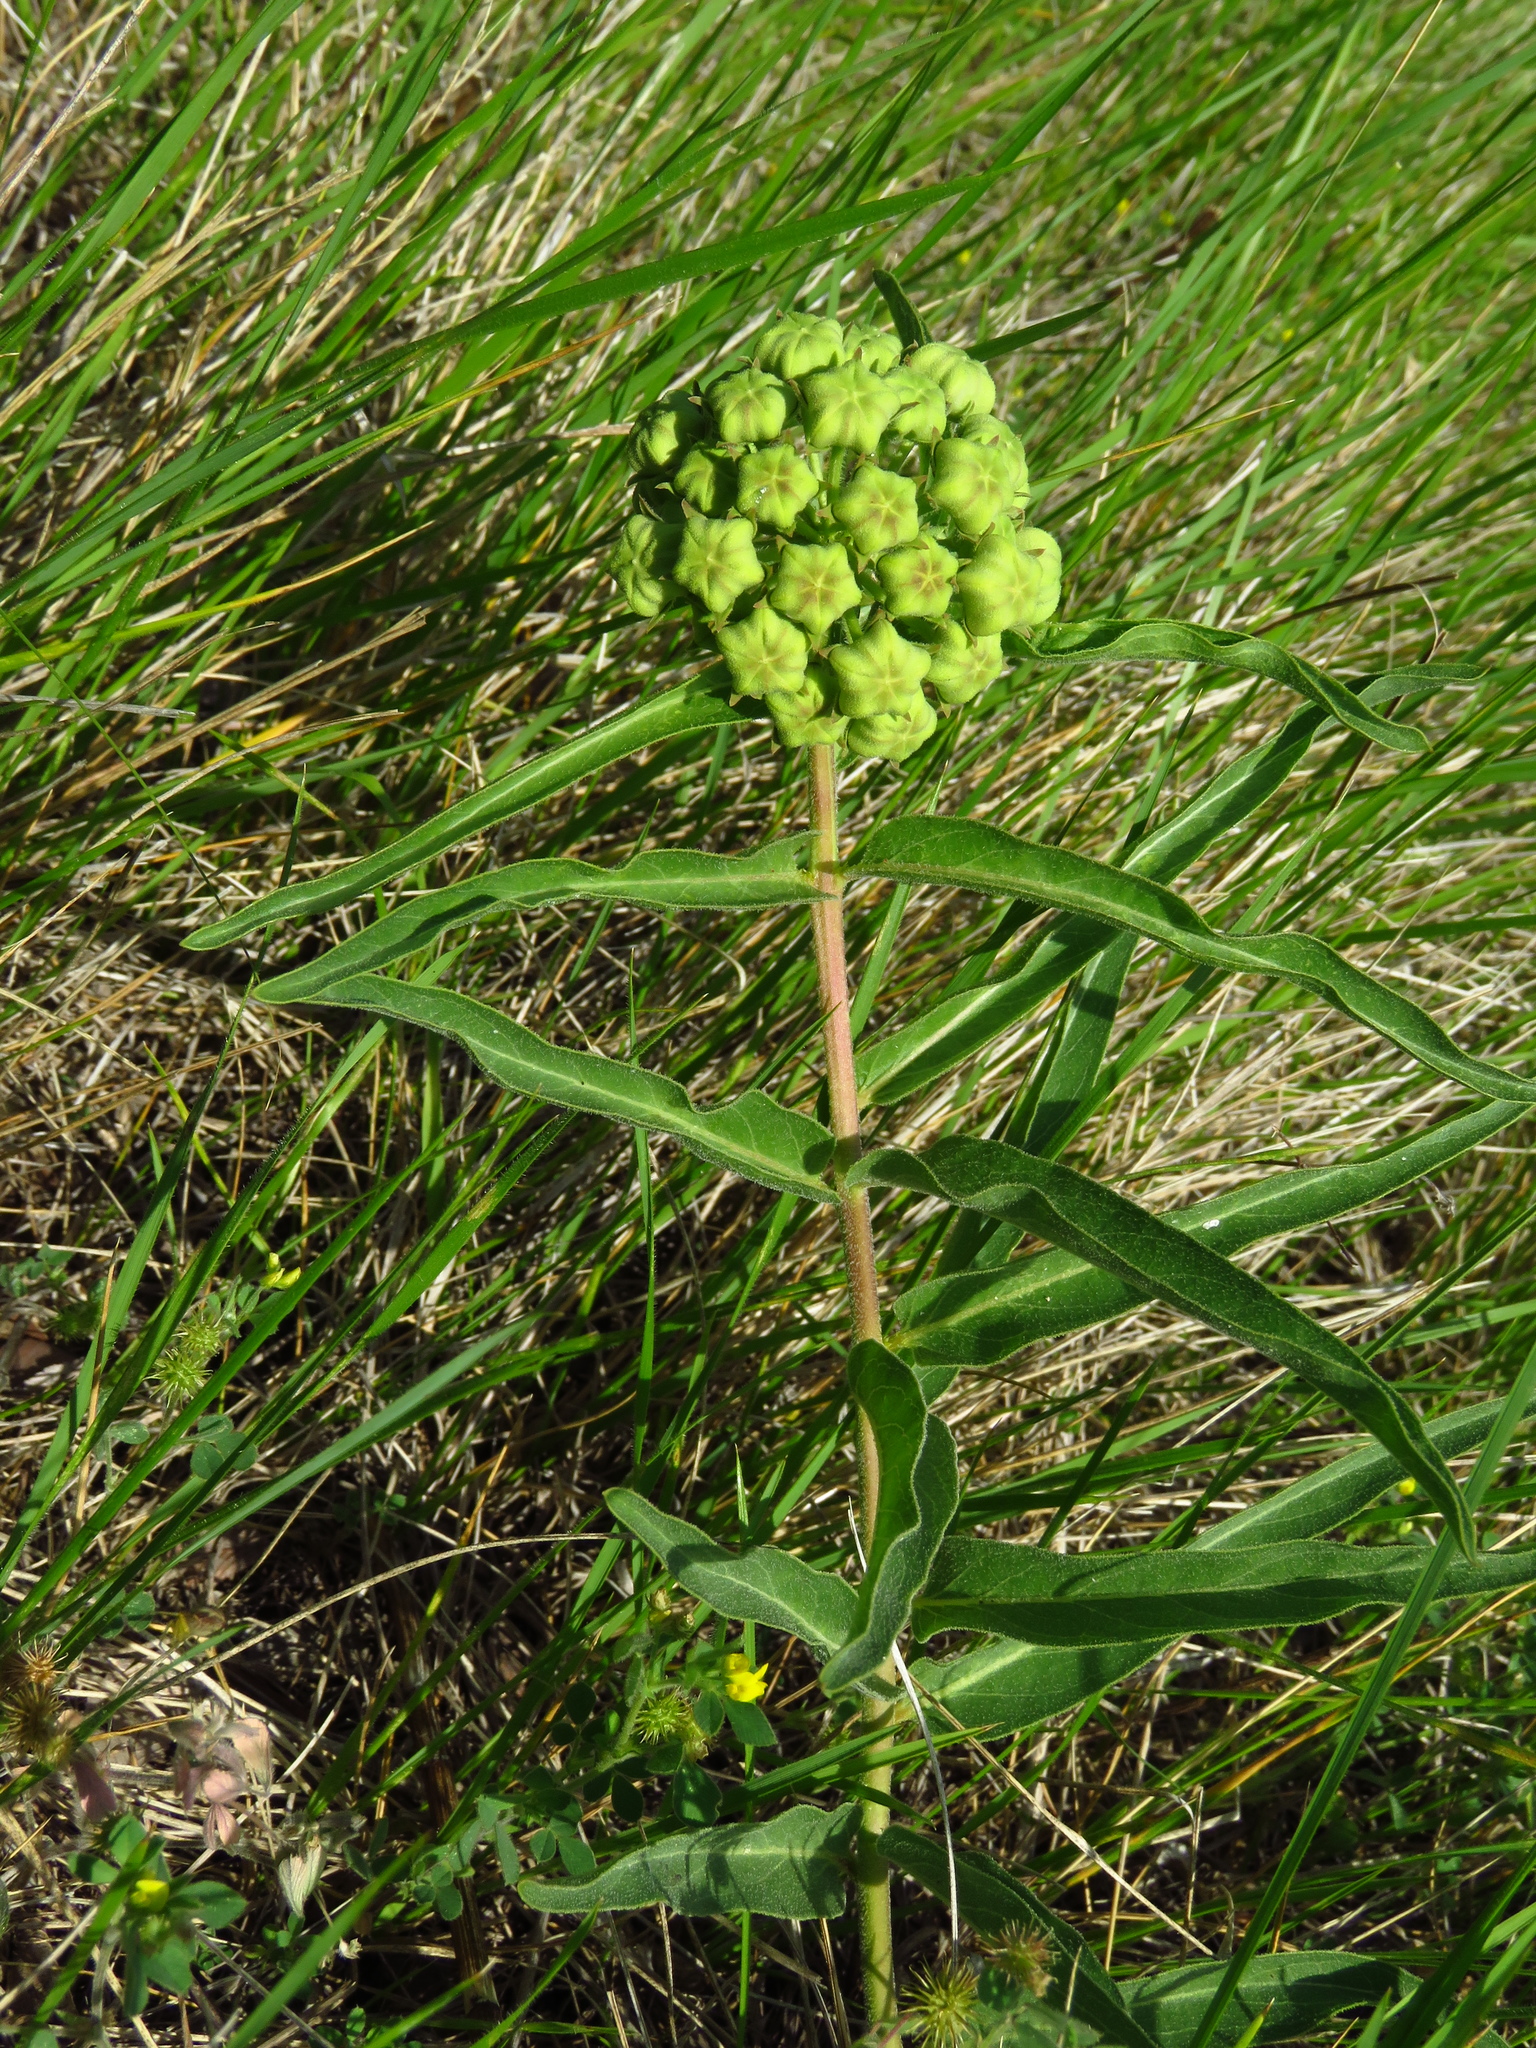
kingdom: Plantae
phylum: Tracheophyta
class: Magnoliopsida
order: Gentianales
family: Apocynaceae
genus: Asclepias
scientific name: Asclepias asperula
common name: Antelope horns
